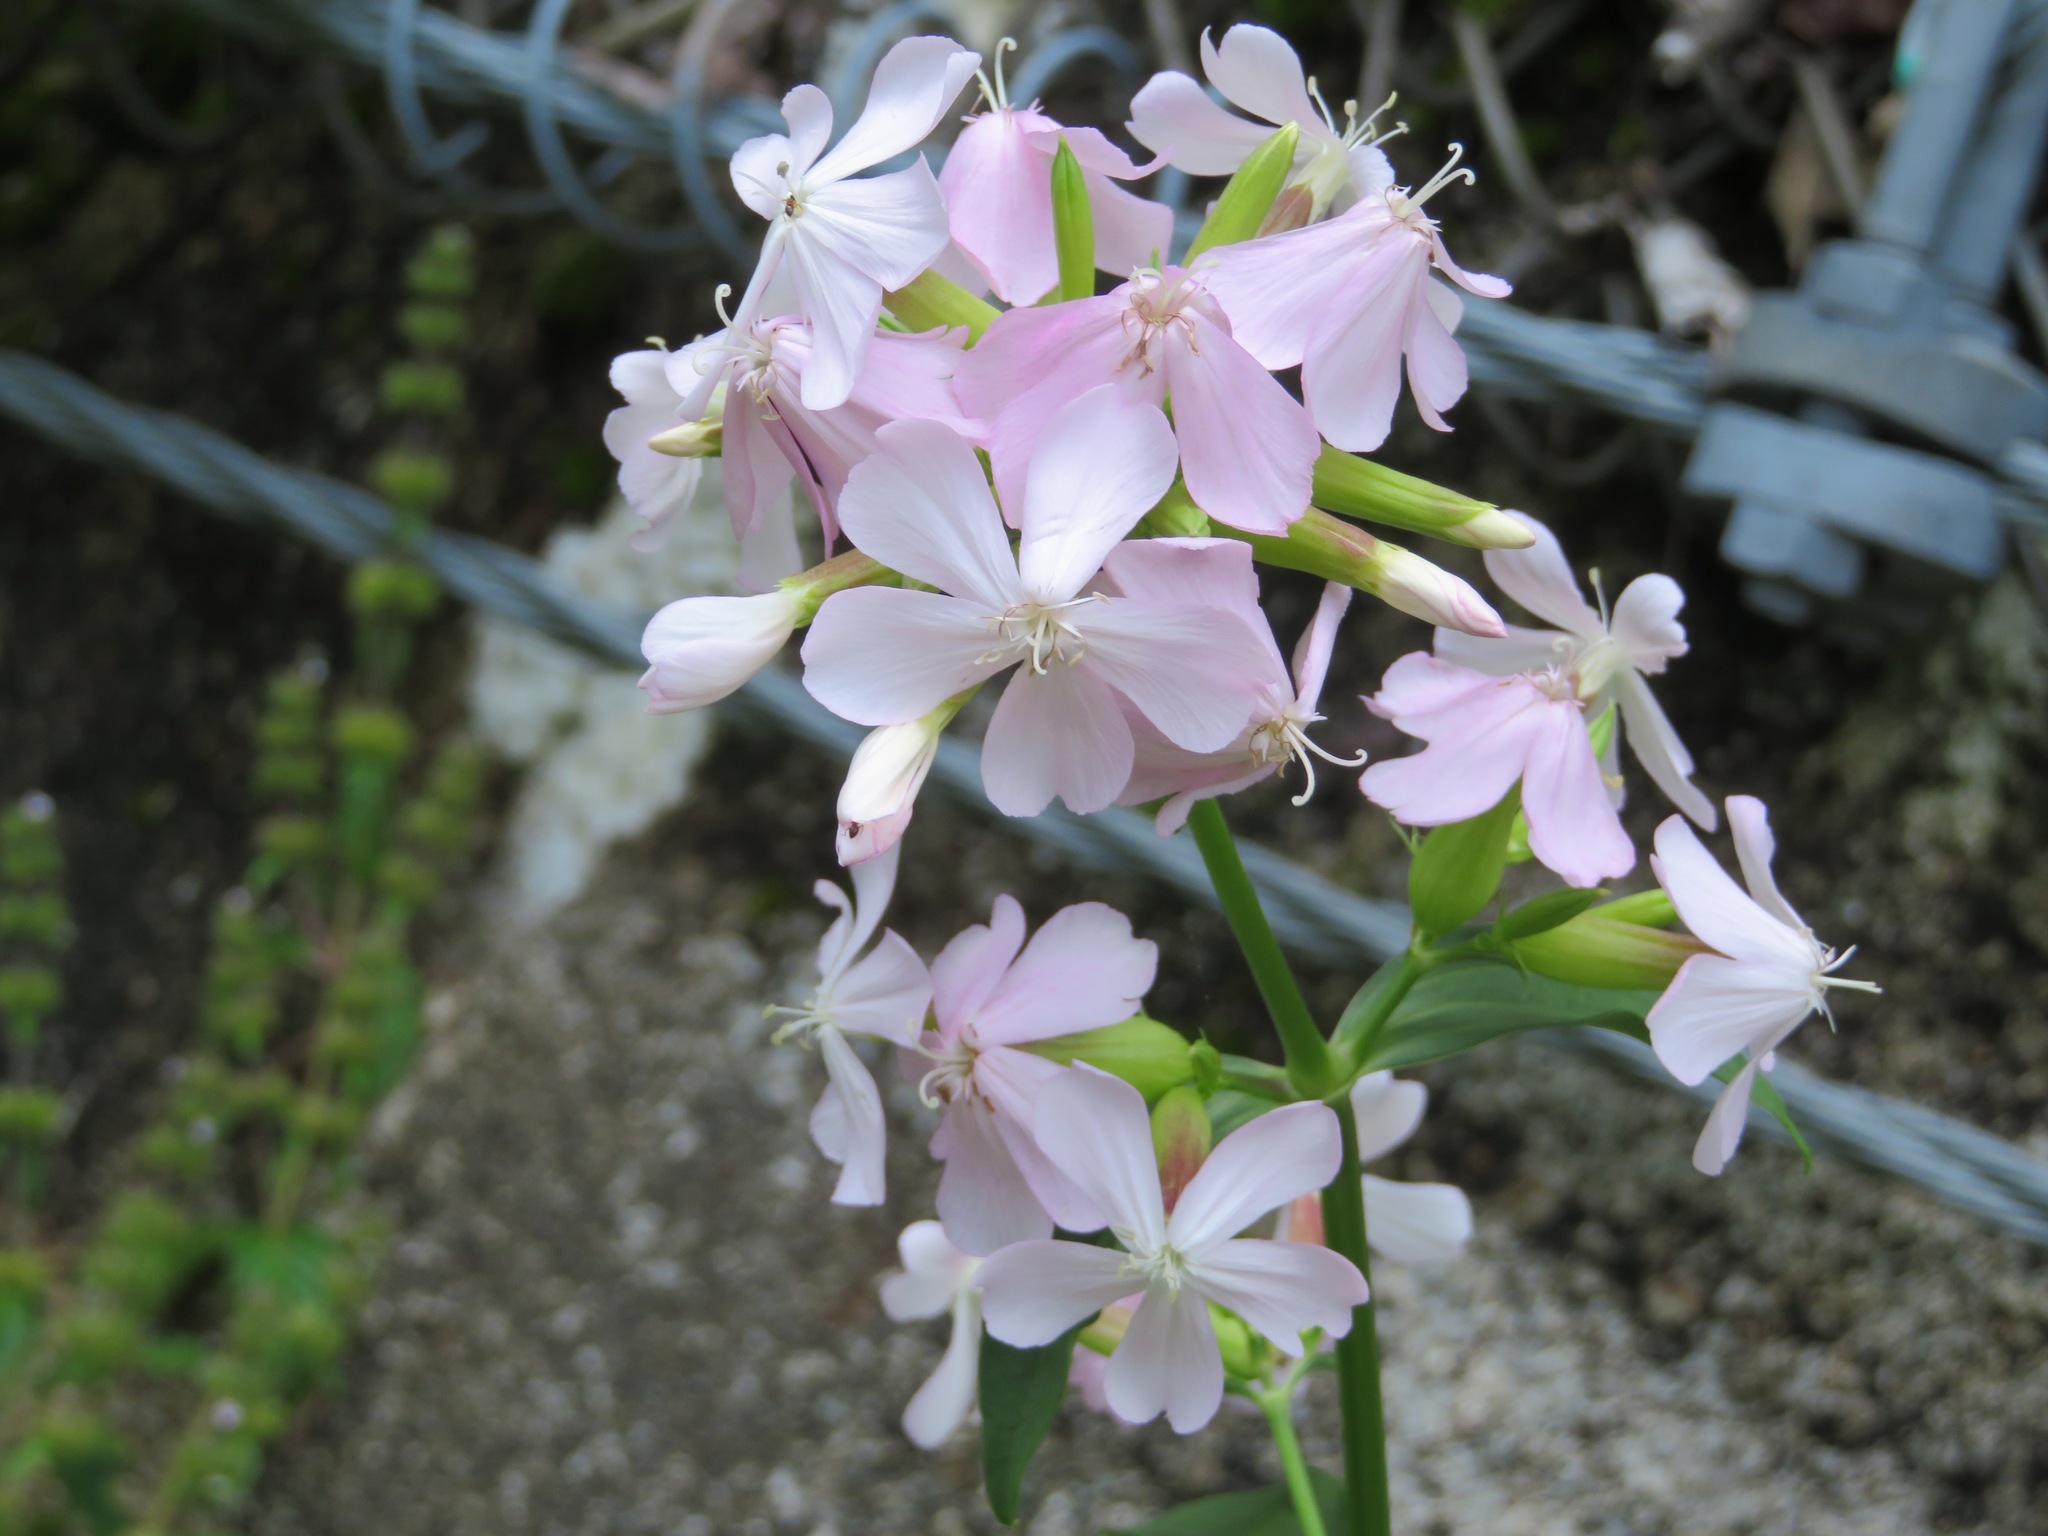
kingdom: Plantae
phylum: Tracheophyta
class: Magnoliopsida
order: Caryophyllales
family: Caryophyllaceae
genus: Saponaria
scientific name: Saponaria officinalis
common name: Soapwort
